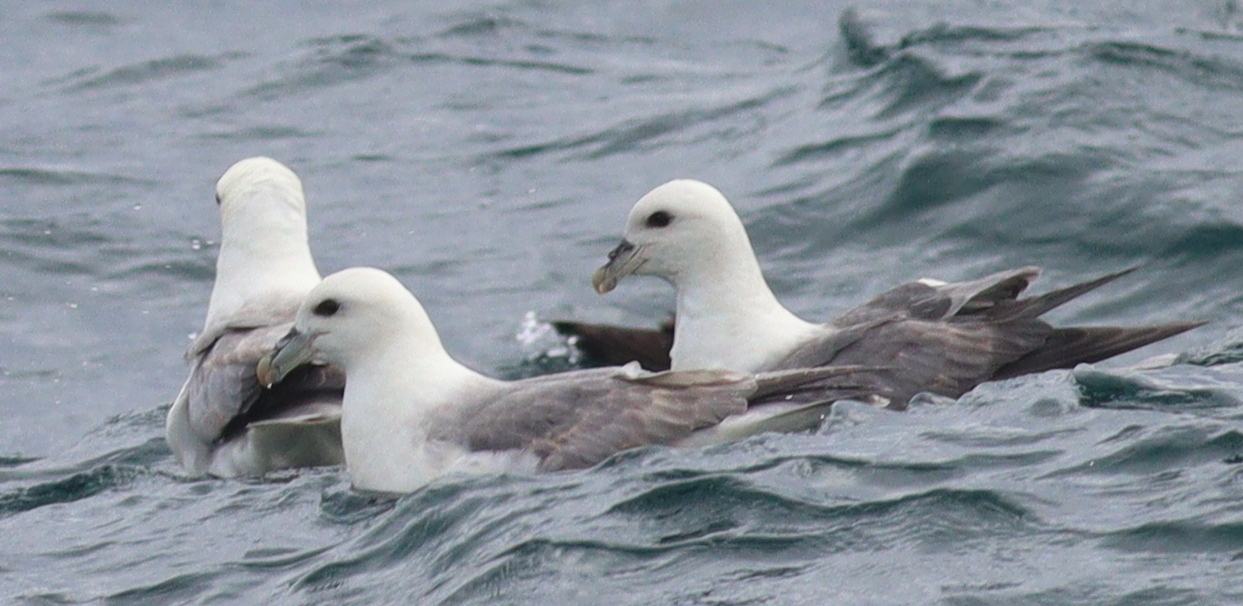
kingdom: Animalia
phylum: Chordata
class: Aves
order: Procellariiformes
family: Procellariidae
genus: Fulmarus
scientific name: Fulmarus glacialis
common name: Northern fulmar
